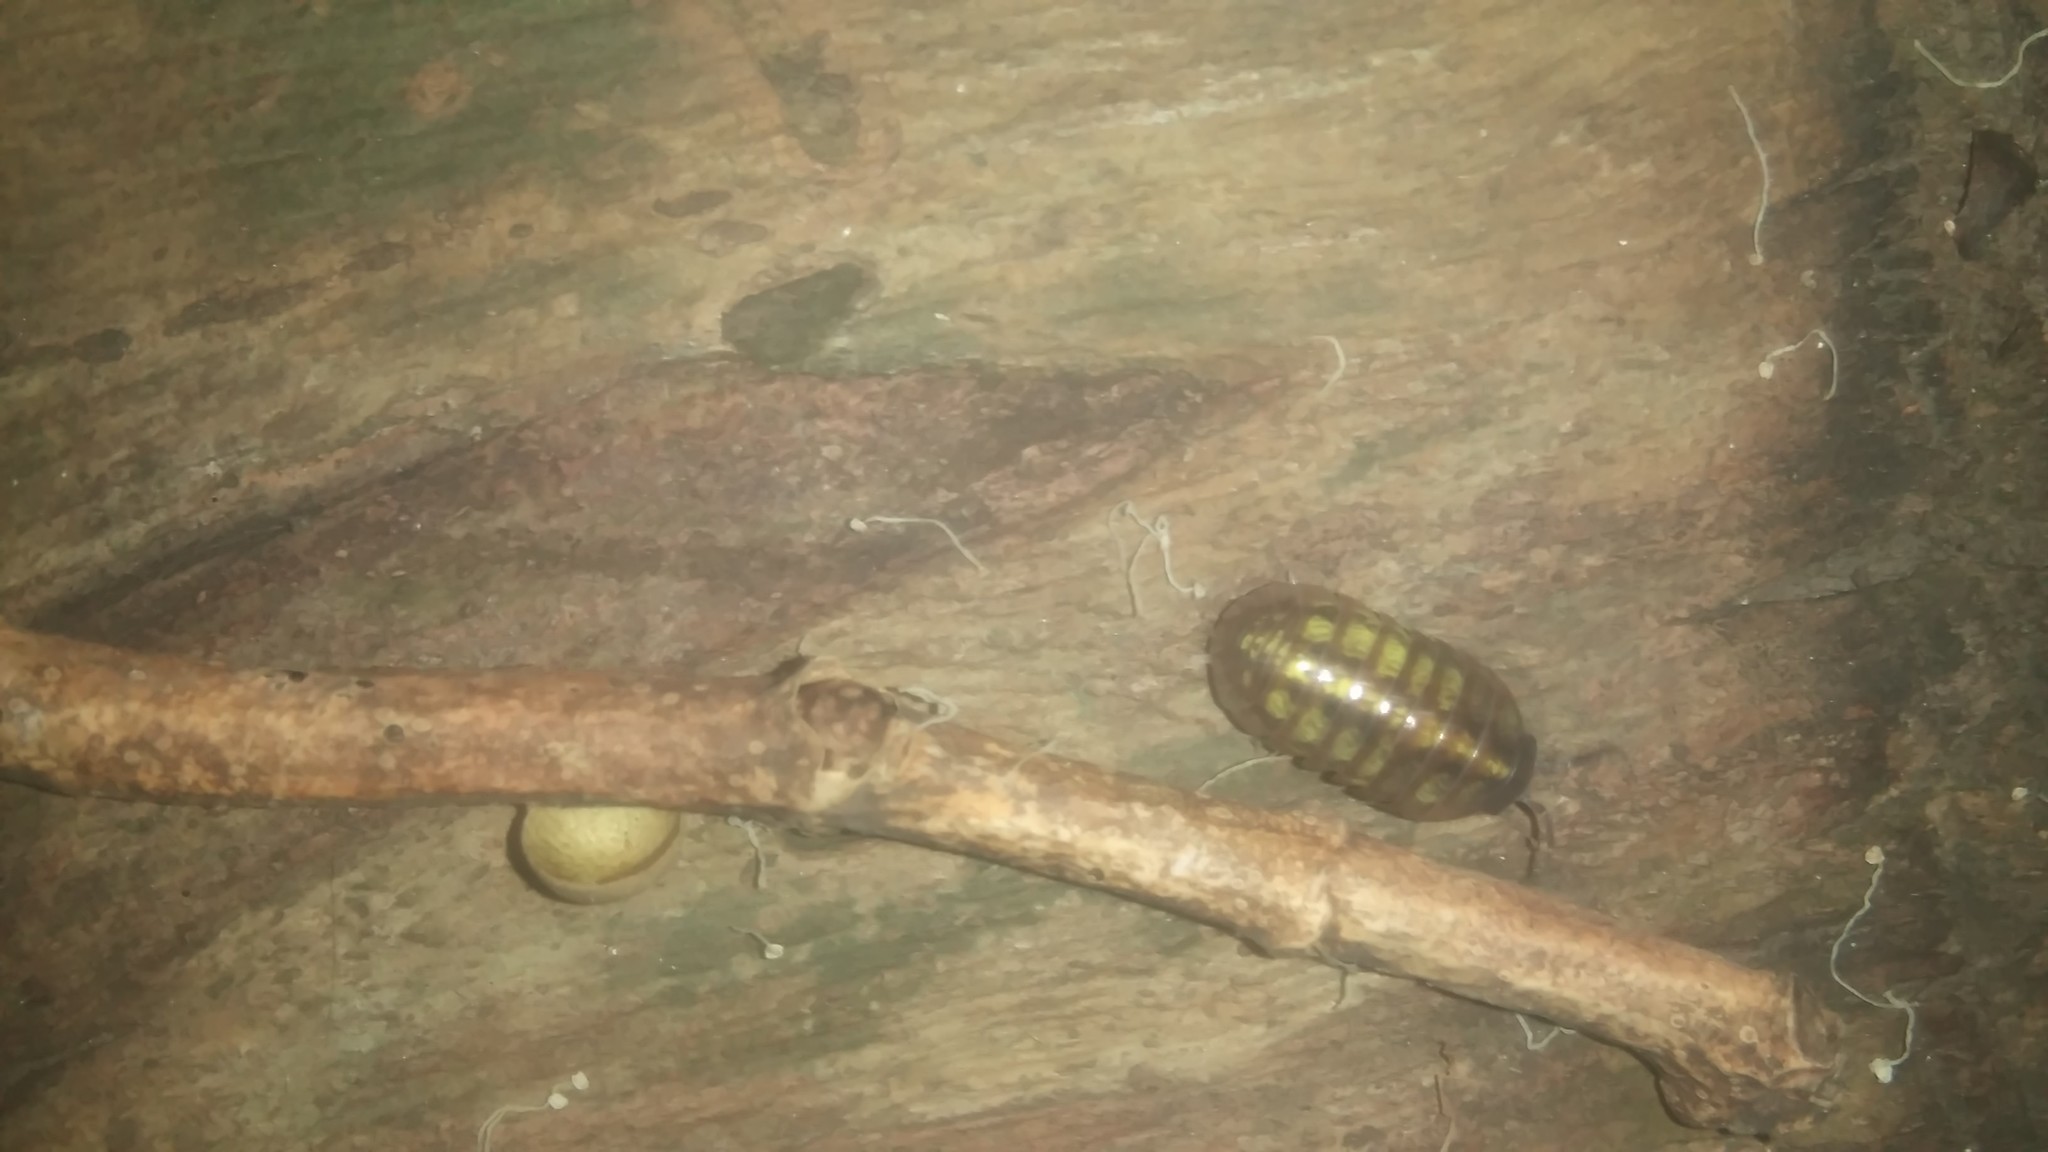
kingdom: Animalia
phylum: Arthropoda
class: Malacostraca
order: Isopoda
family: Armadillidiidae
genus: Armadillidium
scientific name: Armadillidium vulgare
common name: Common pill woodlouse
